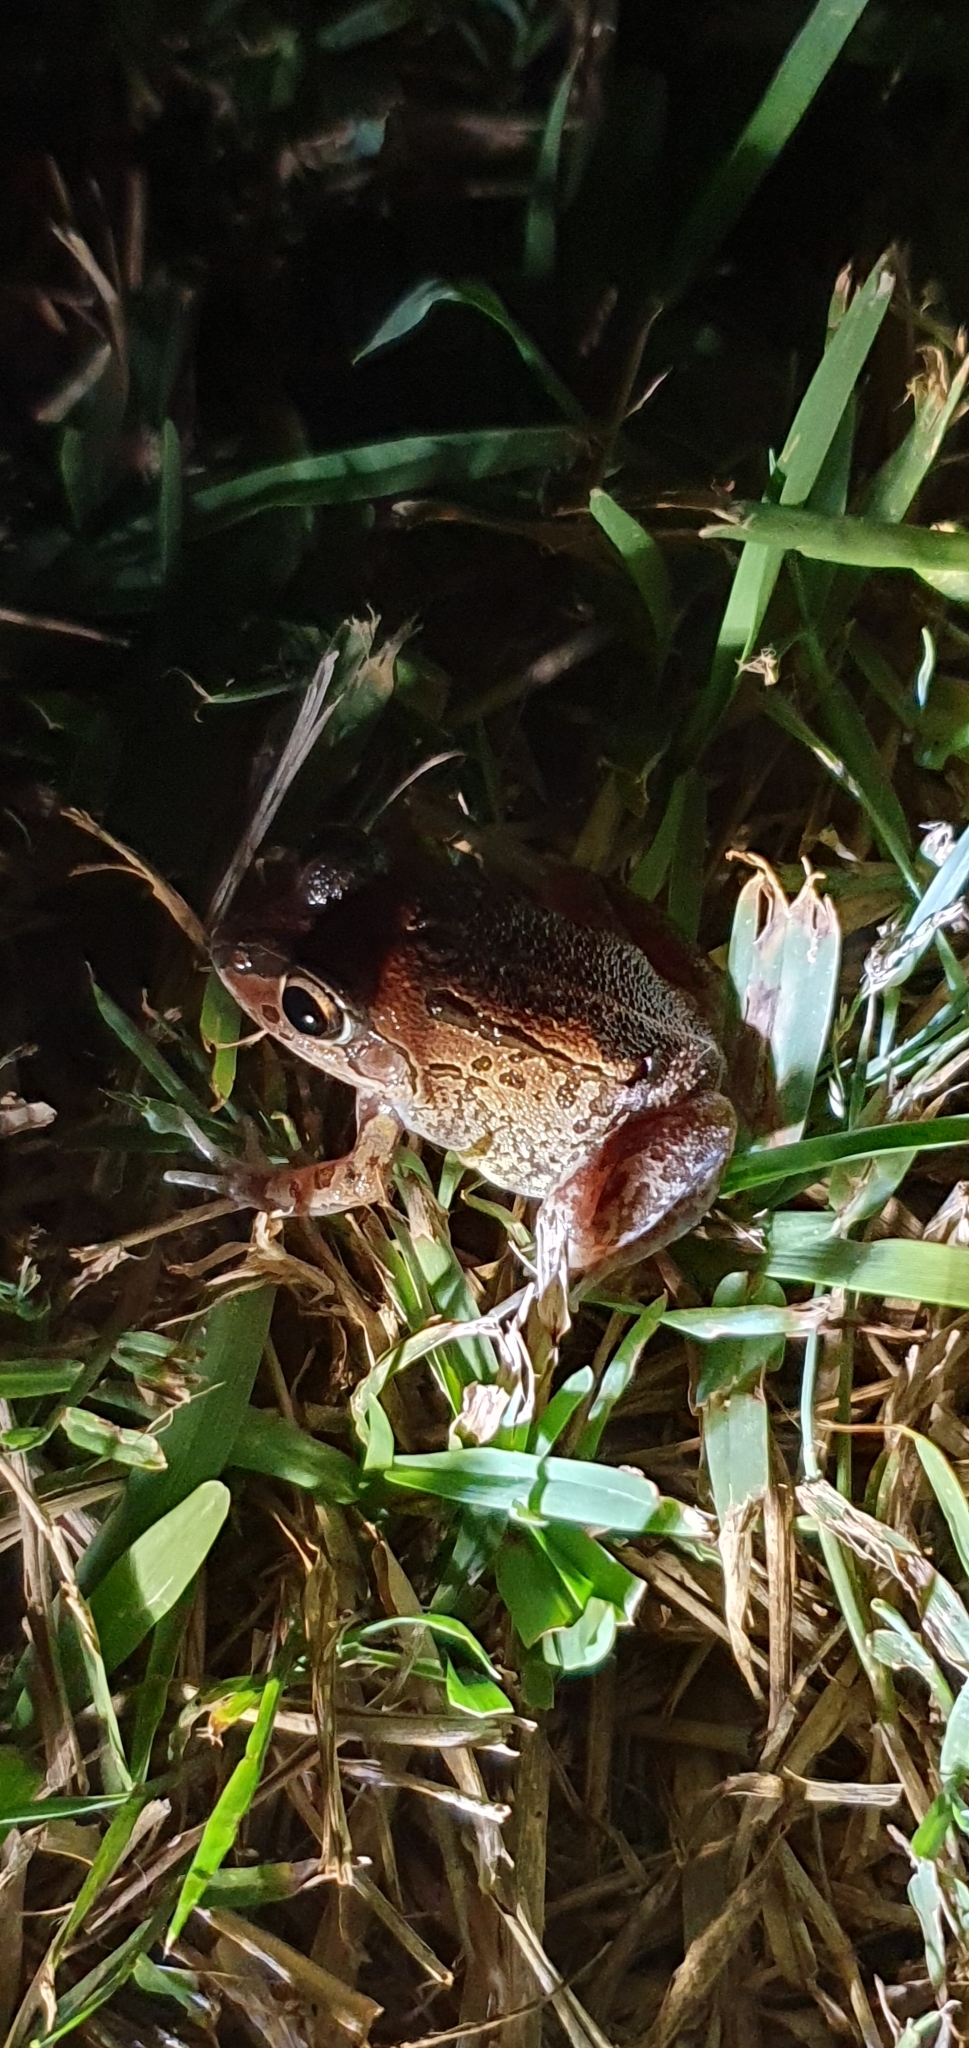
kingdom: Animalia
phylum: Chordata
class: Amphibia
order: Anura
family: Pelodryadidae
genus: Ranoidea
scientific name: Ranoidea brevipes
